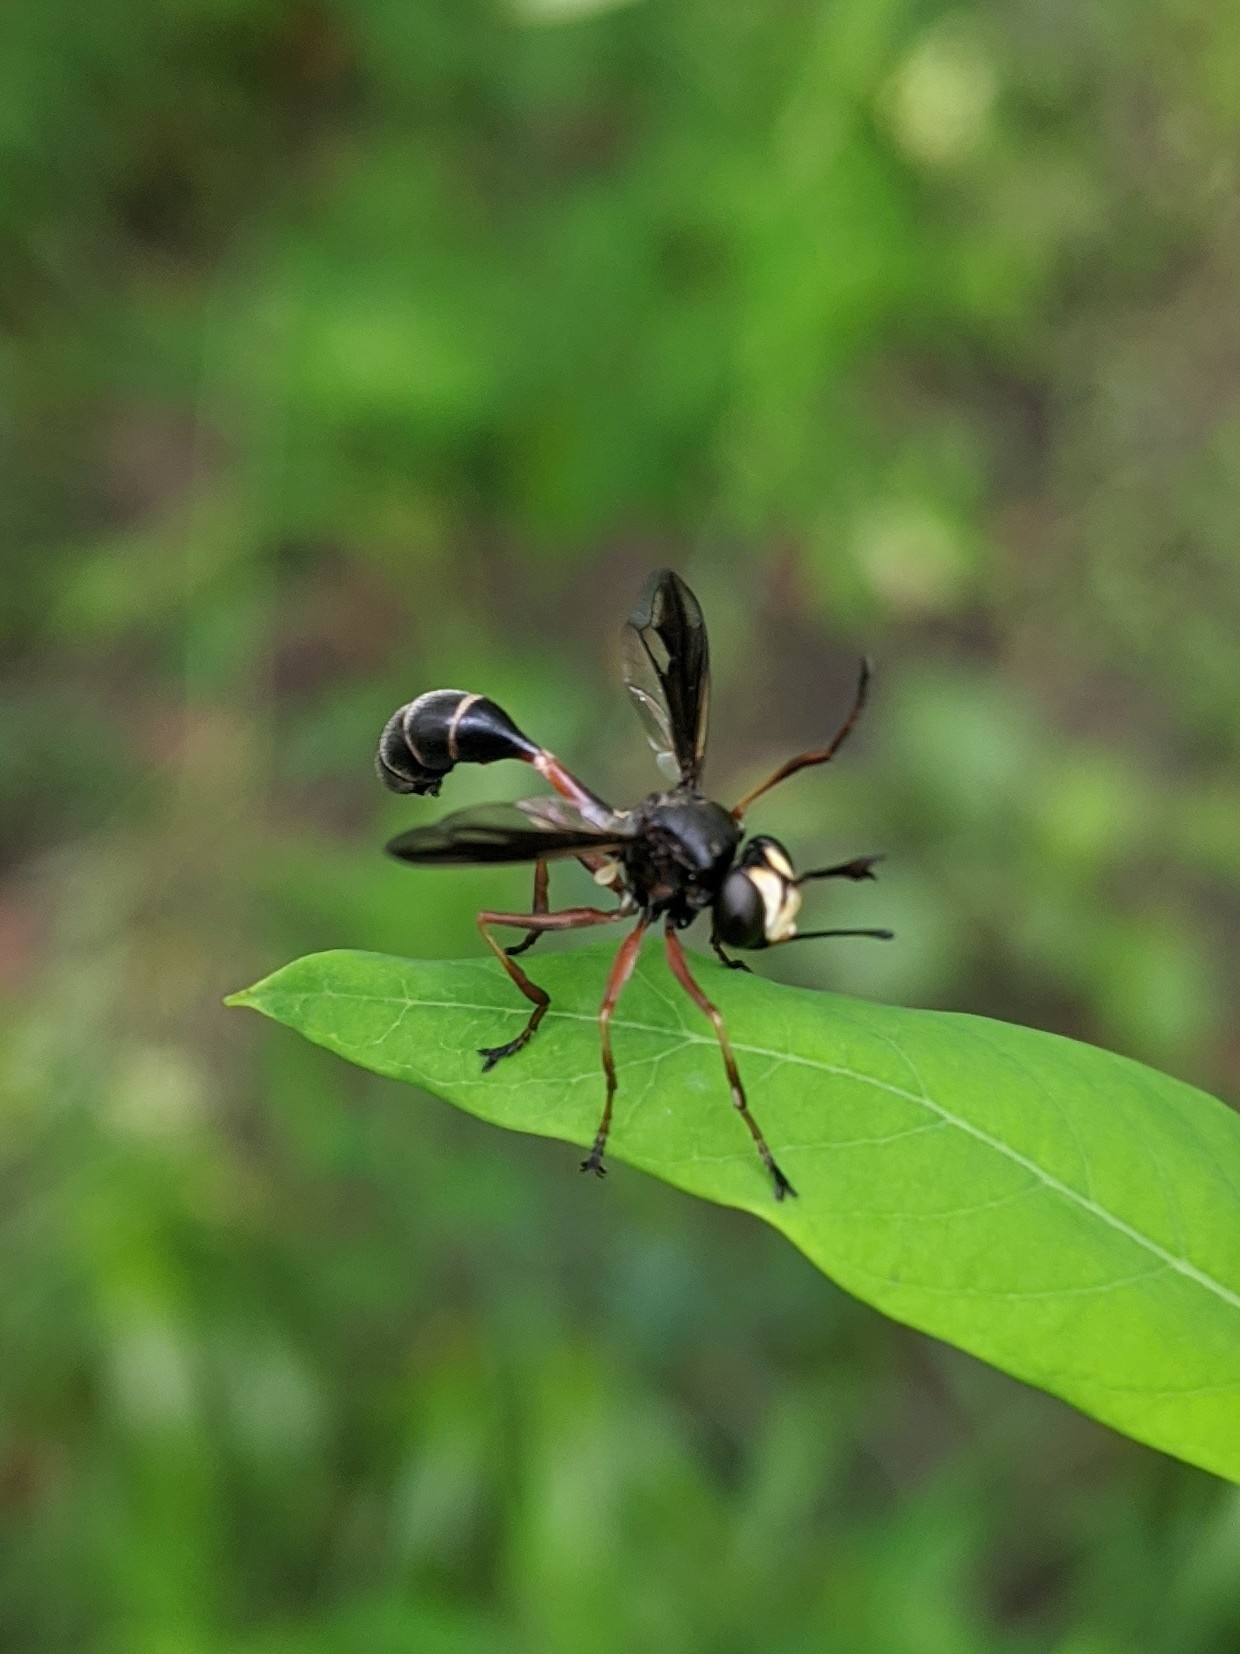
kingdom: Animalia
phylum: Arthropoda
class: Insecta
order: Diptera
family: Conopidae
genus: Physocephala
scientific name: Physocephala furcillata
